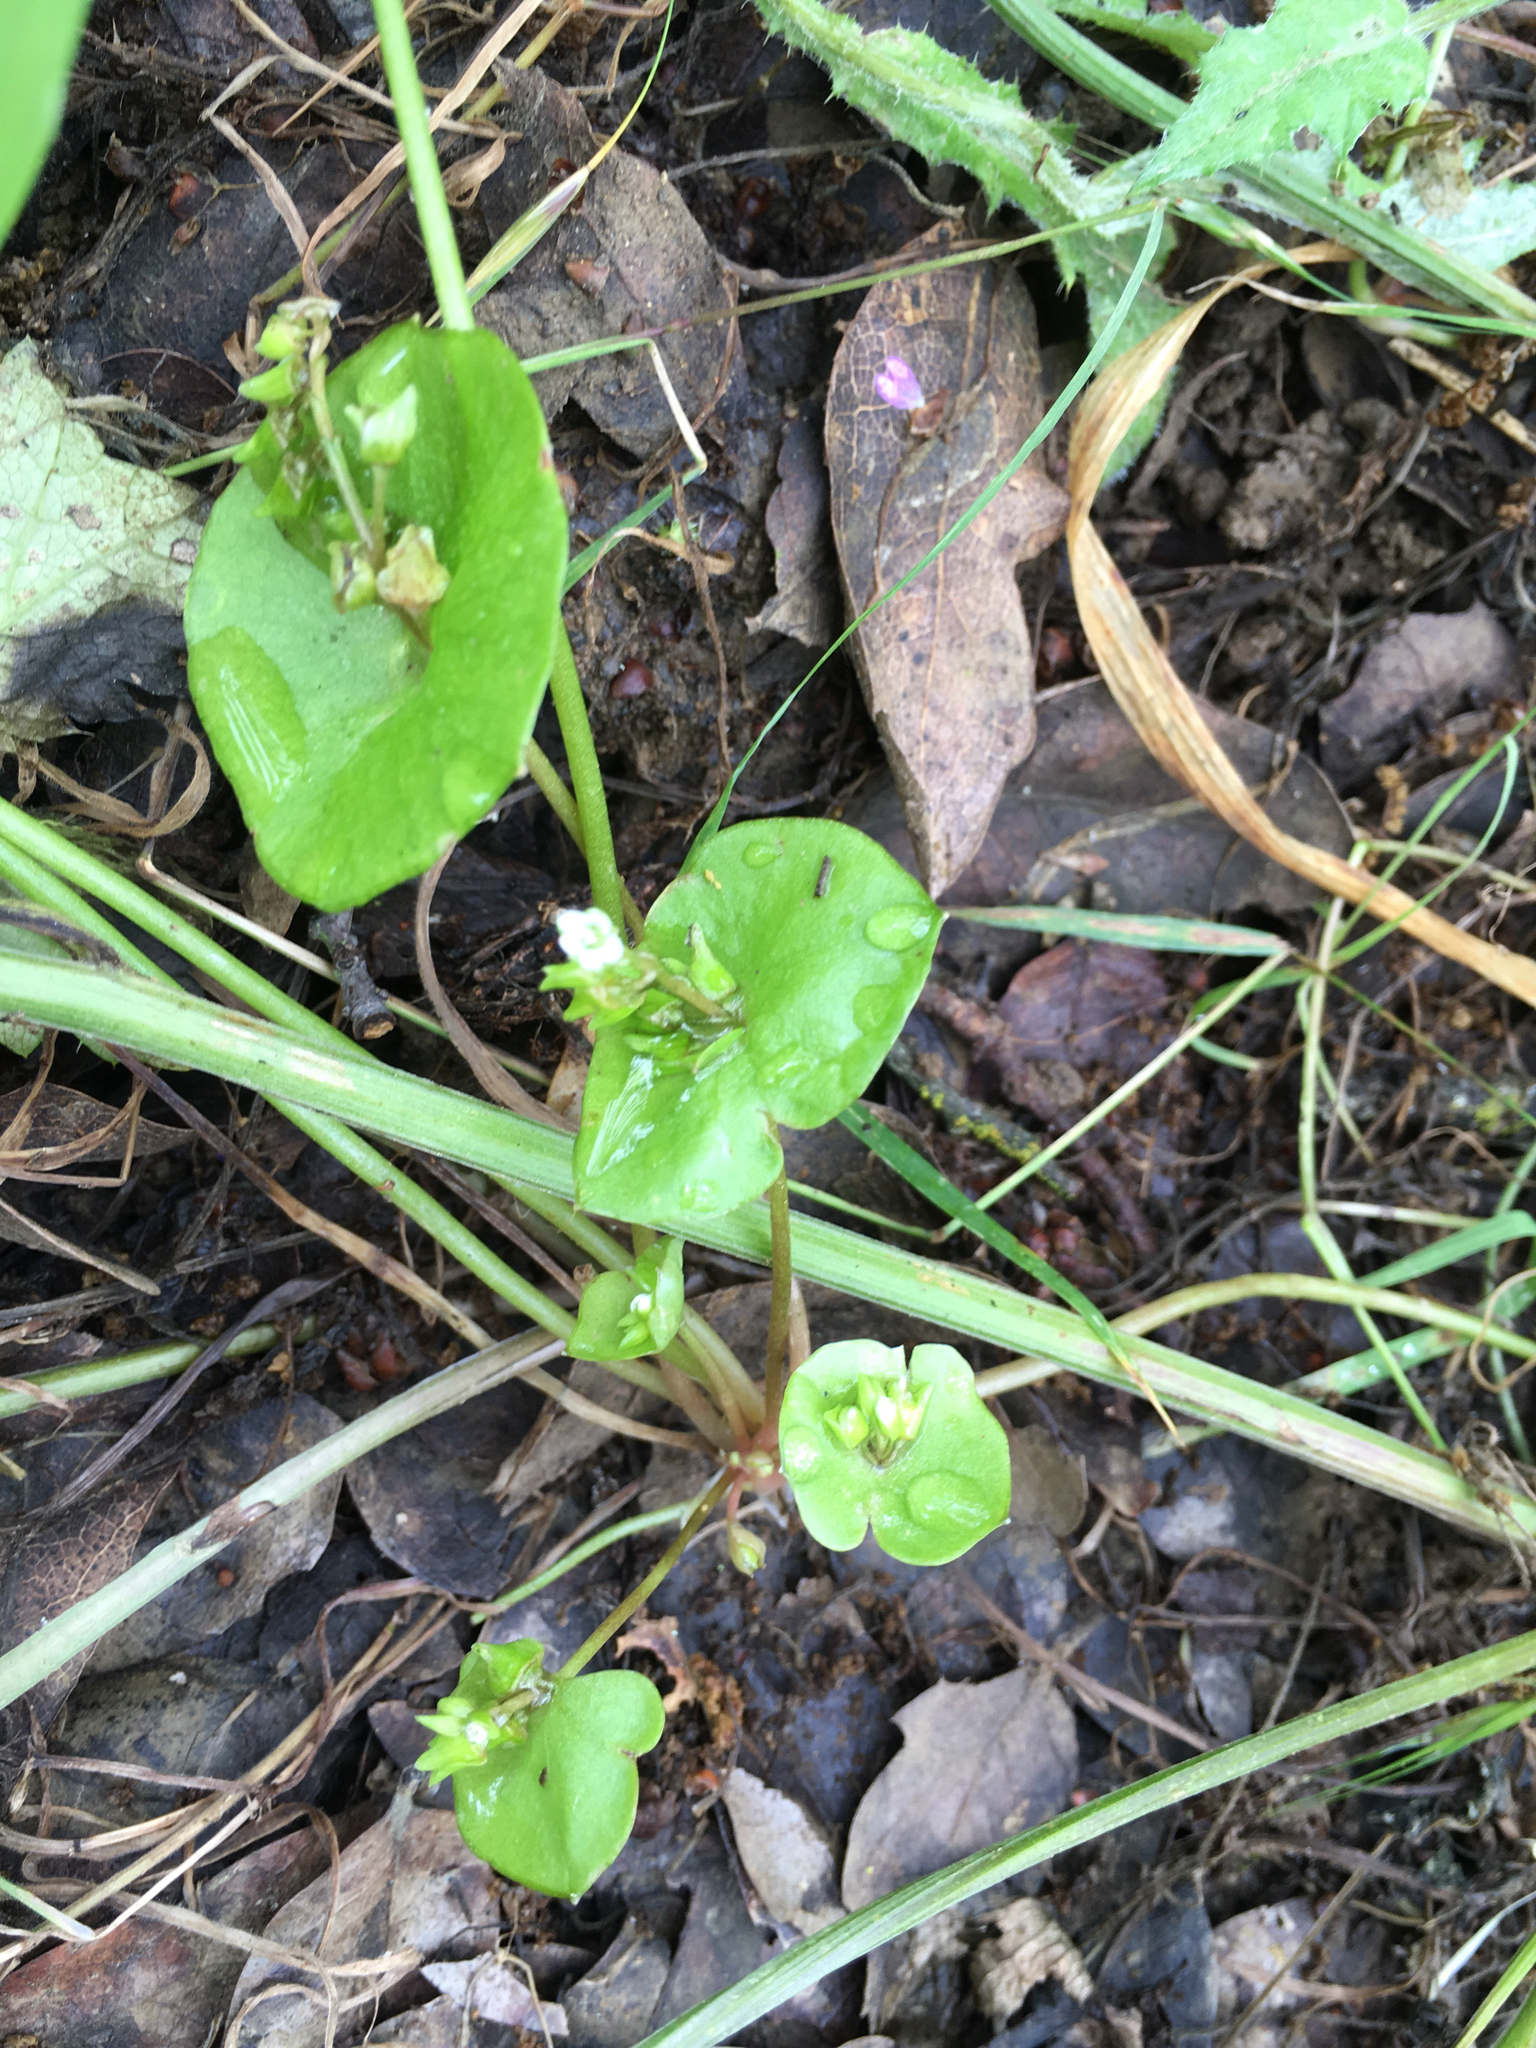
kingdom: Plantae
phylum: Tracheophyta
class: Magnoliopsida
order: Caryophyllales
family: Montiaceae
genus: Claytonia
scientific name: Claytonia perfoliata
